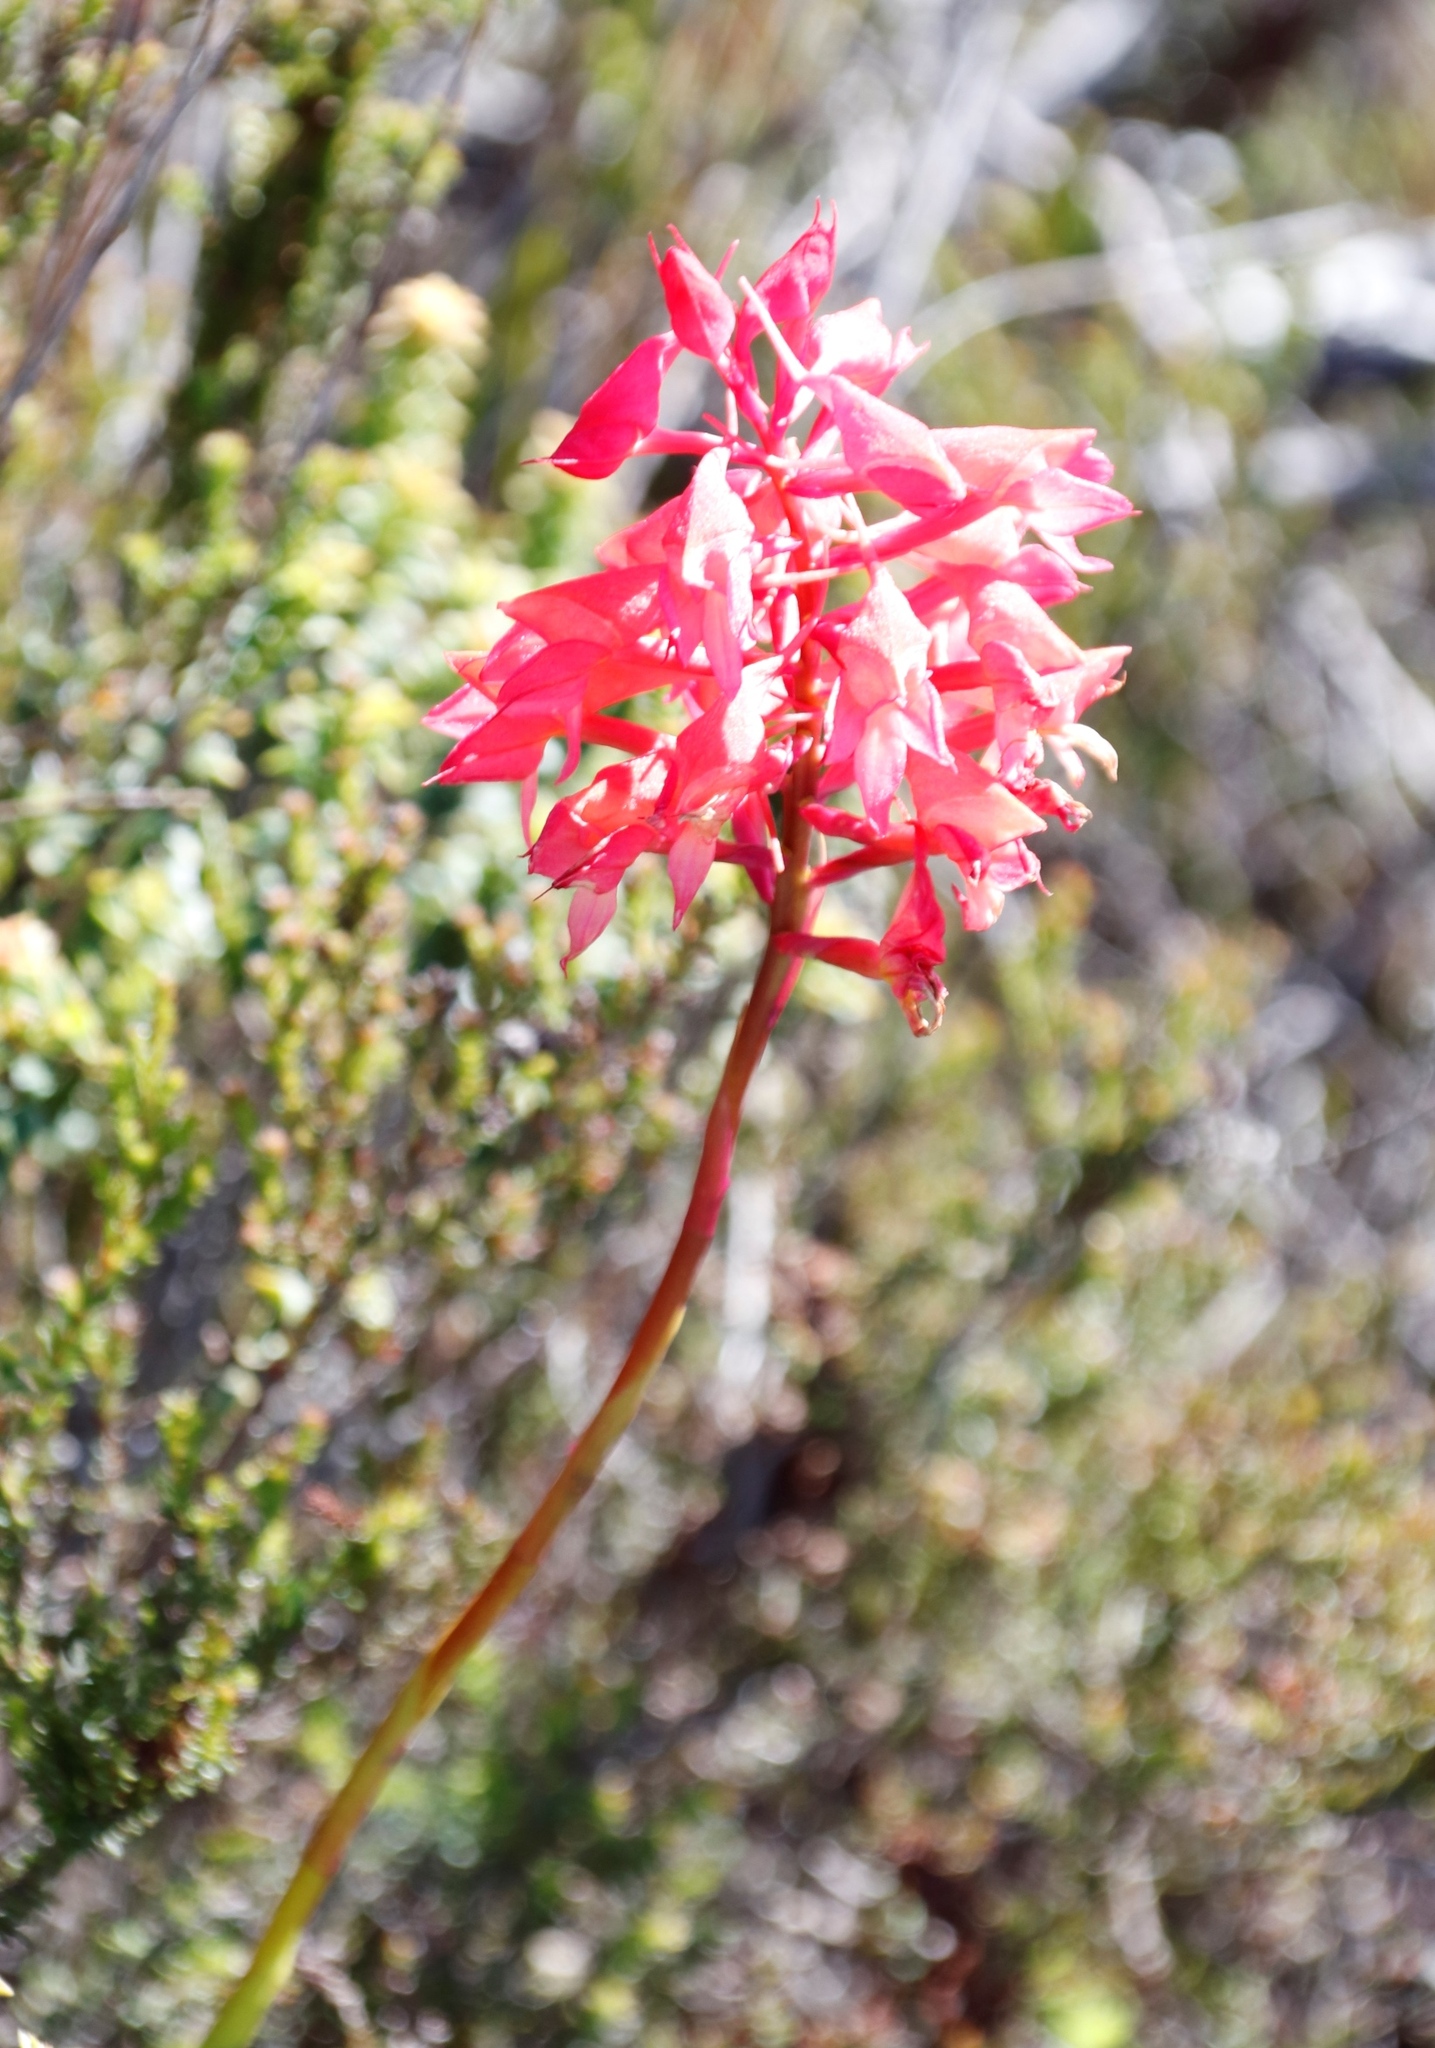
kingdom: Plantae
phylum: Tracheophyta
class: Liliopsida
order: Asparagales
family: Orchidaceae
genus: Disa
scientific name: Disa ferruginea
